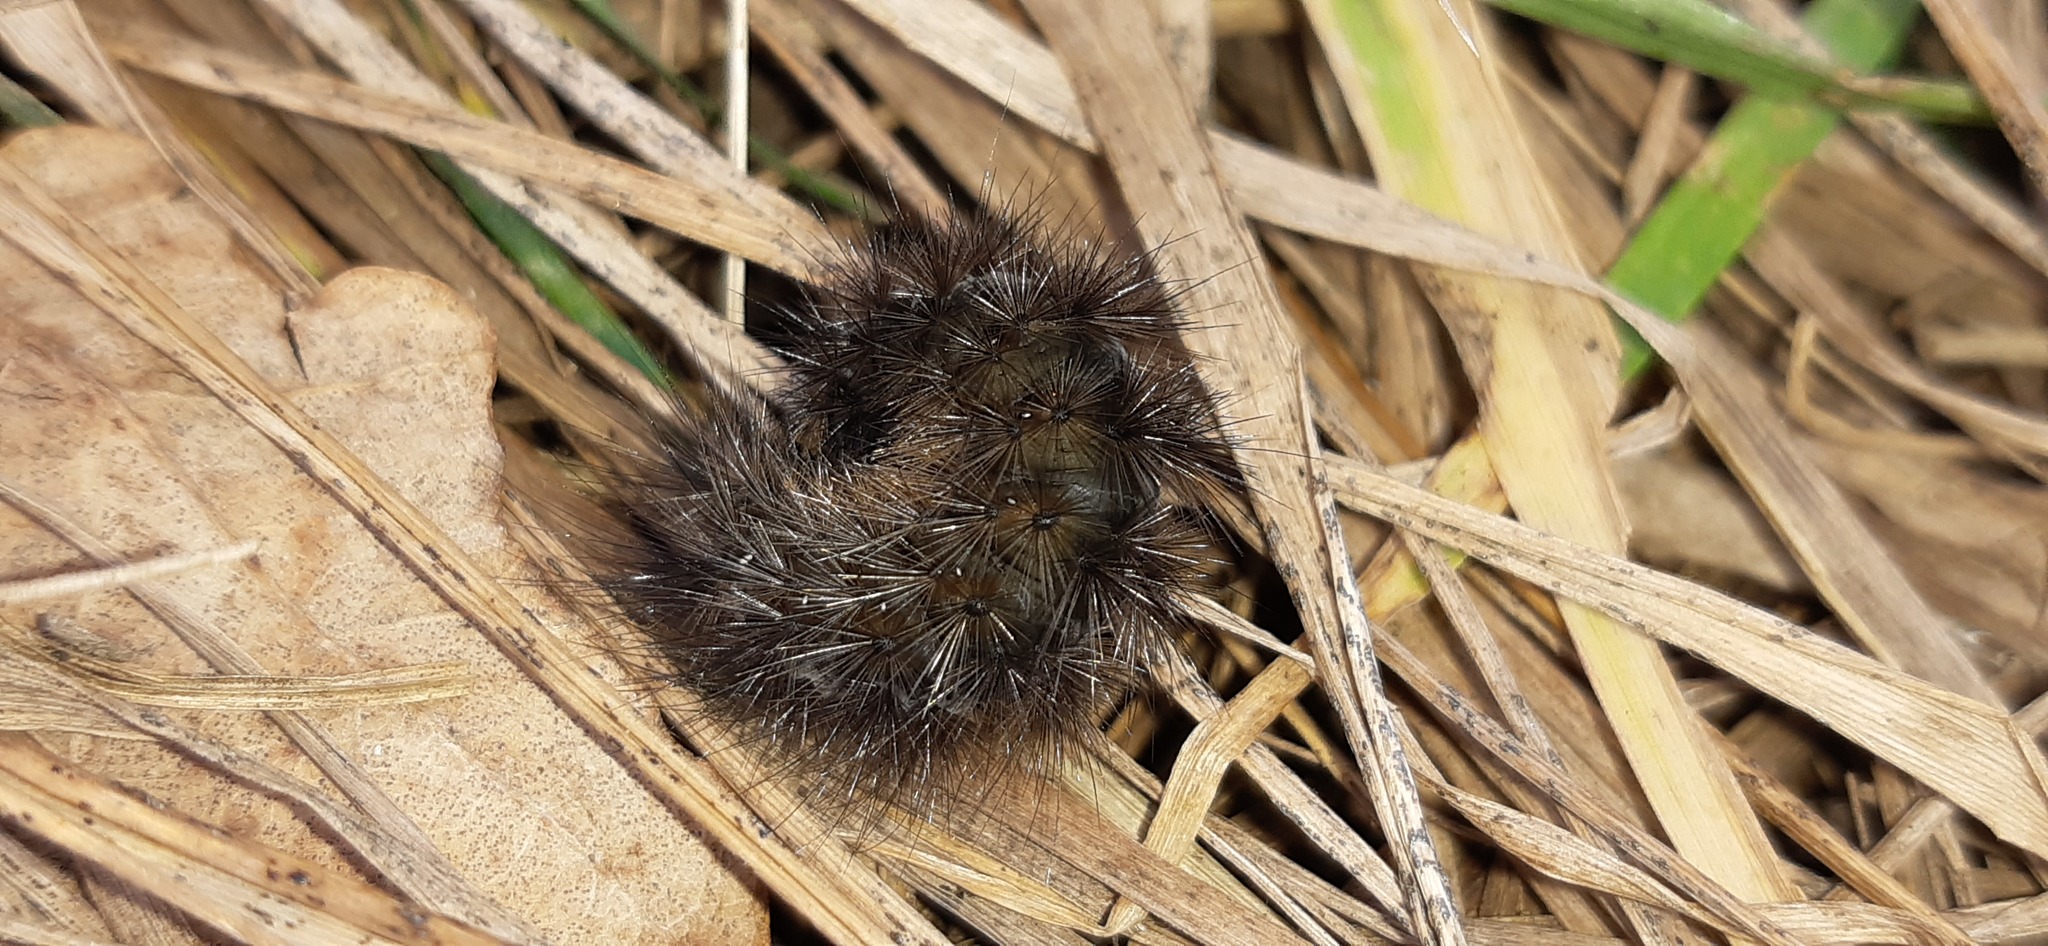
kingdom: Animalia
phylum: Arthropoda
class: Insecta
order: Lepidoptera
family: Erebidae
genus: Phragmatobia
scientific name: Phragmatobia fuliginosa
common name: Ruby tiger
